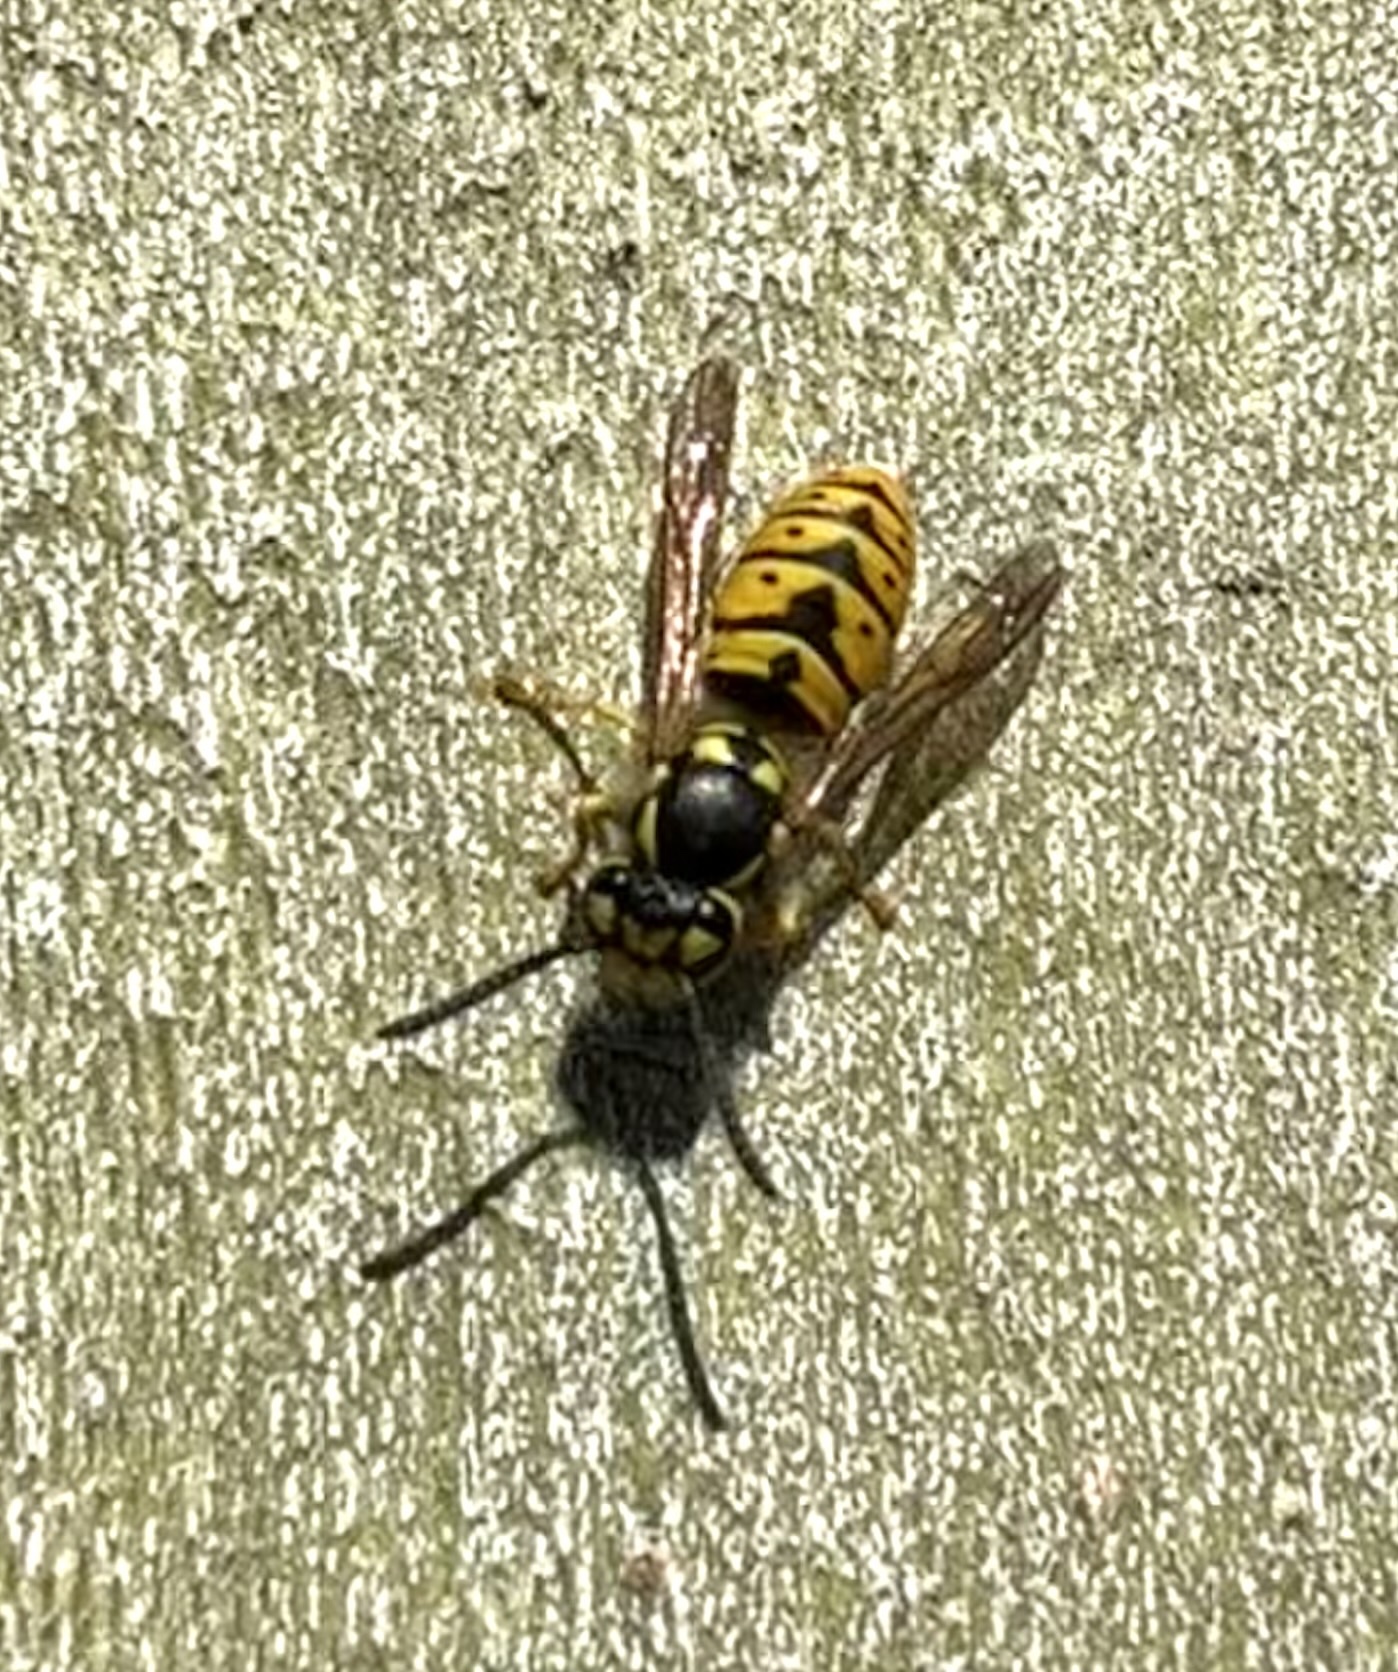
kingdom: Animalia
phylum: Arthropoda
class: Insecta
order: Hymenoptera
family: Vespidae
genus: Vespula
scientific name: Vespula germanica
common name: German wasp
